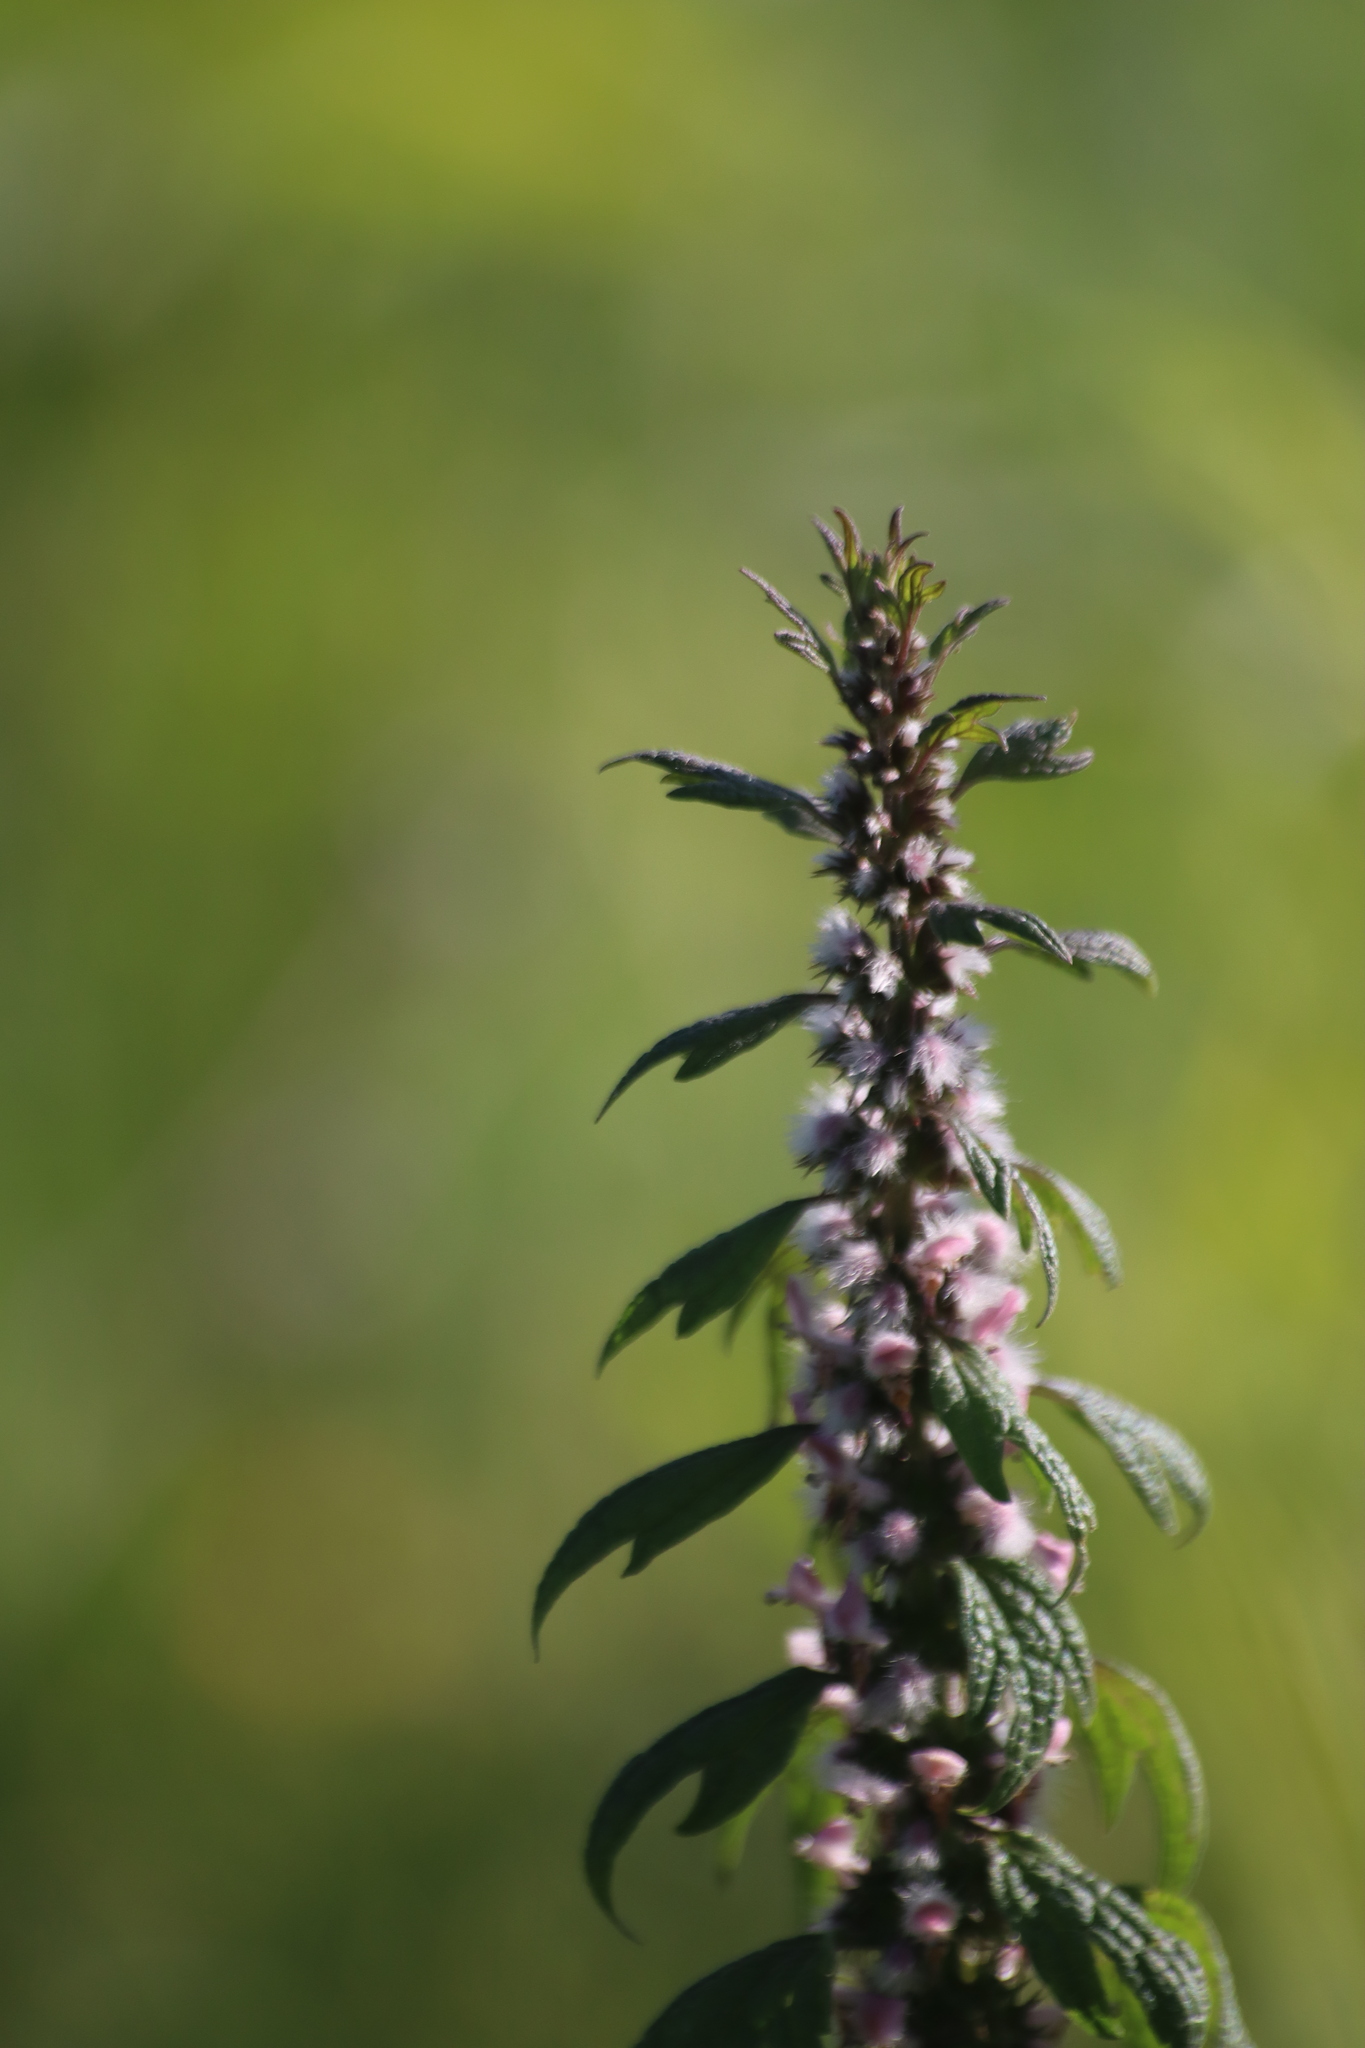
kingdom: Plantae
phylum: Tracheophyta
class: Magnoliopsida
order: Lamiales
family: Lamiaceae
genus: Leonurus
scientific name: Leonurus cardiaca
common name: Motherwort
